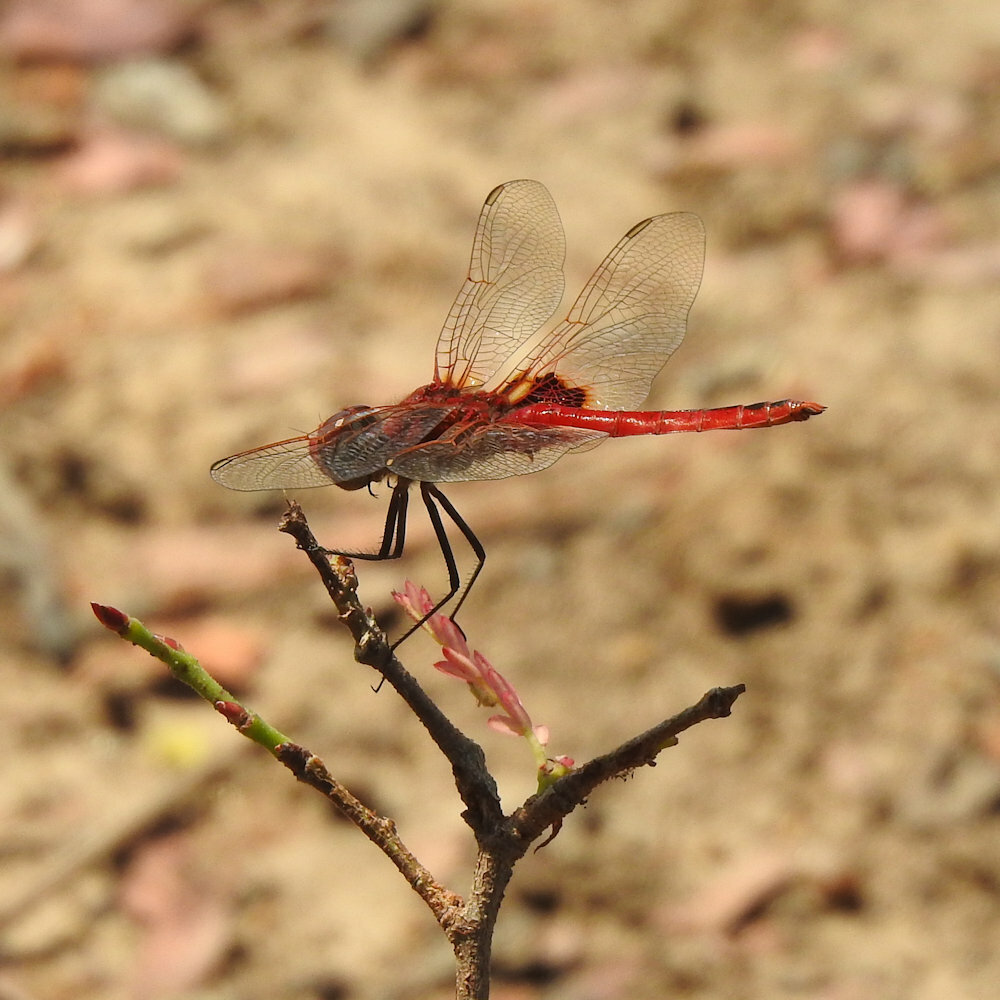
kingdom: Animalia
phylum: Arthropoda
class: Insecta
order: Odonata
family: Libellulidae
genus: Urothemis
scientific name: Urothemis assignata
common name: Red basker
